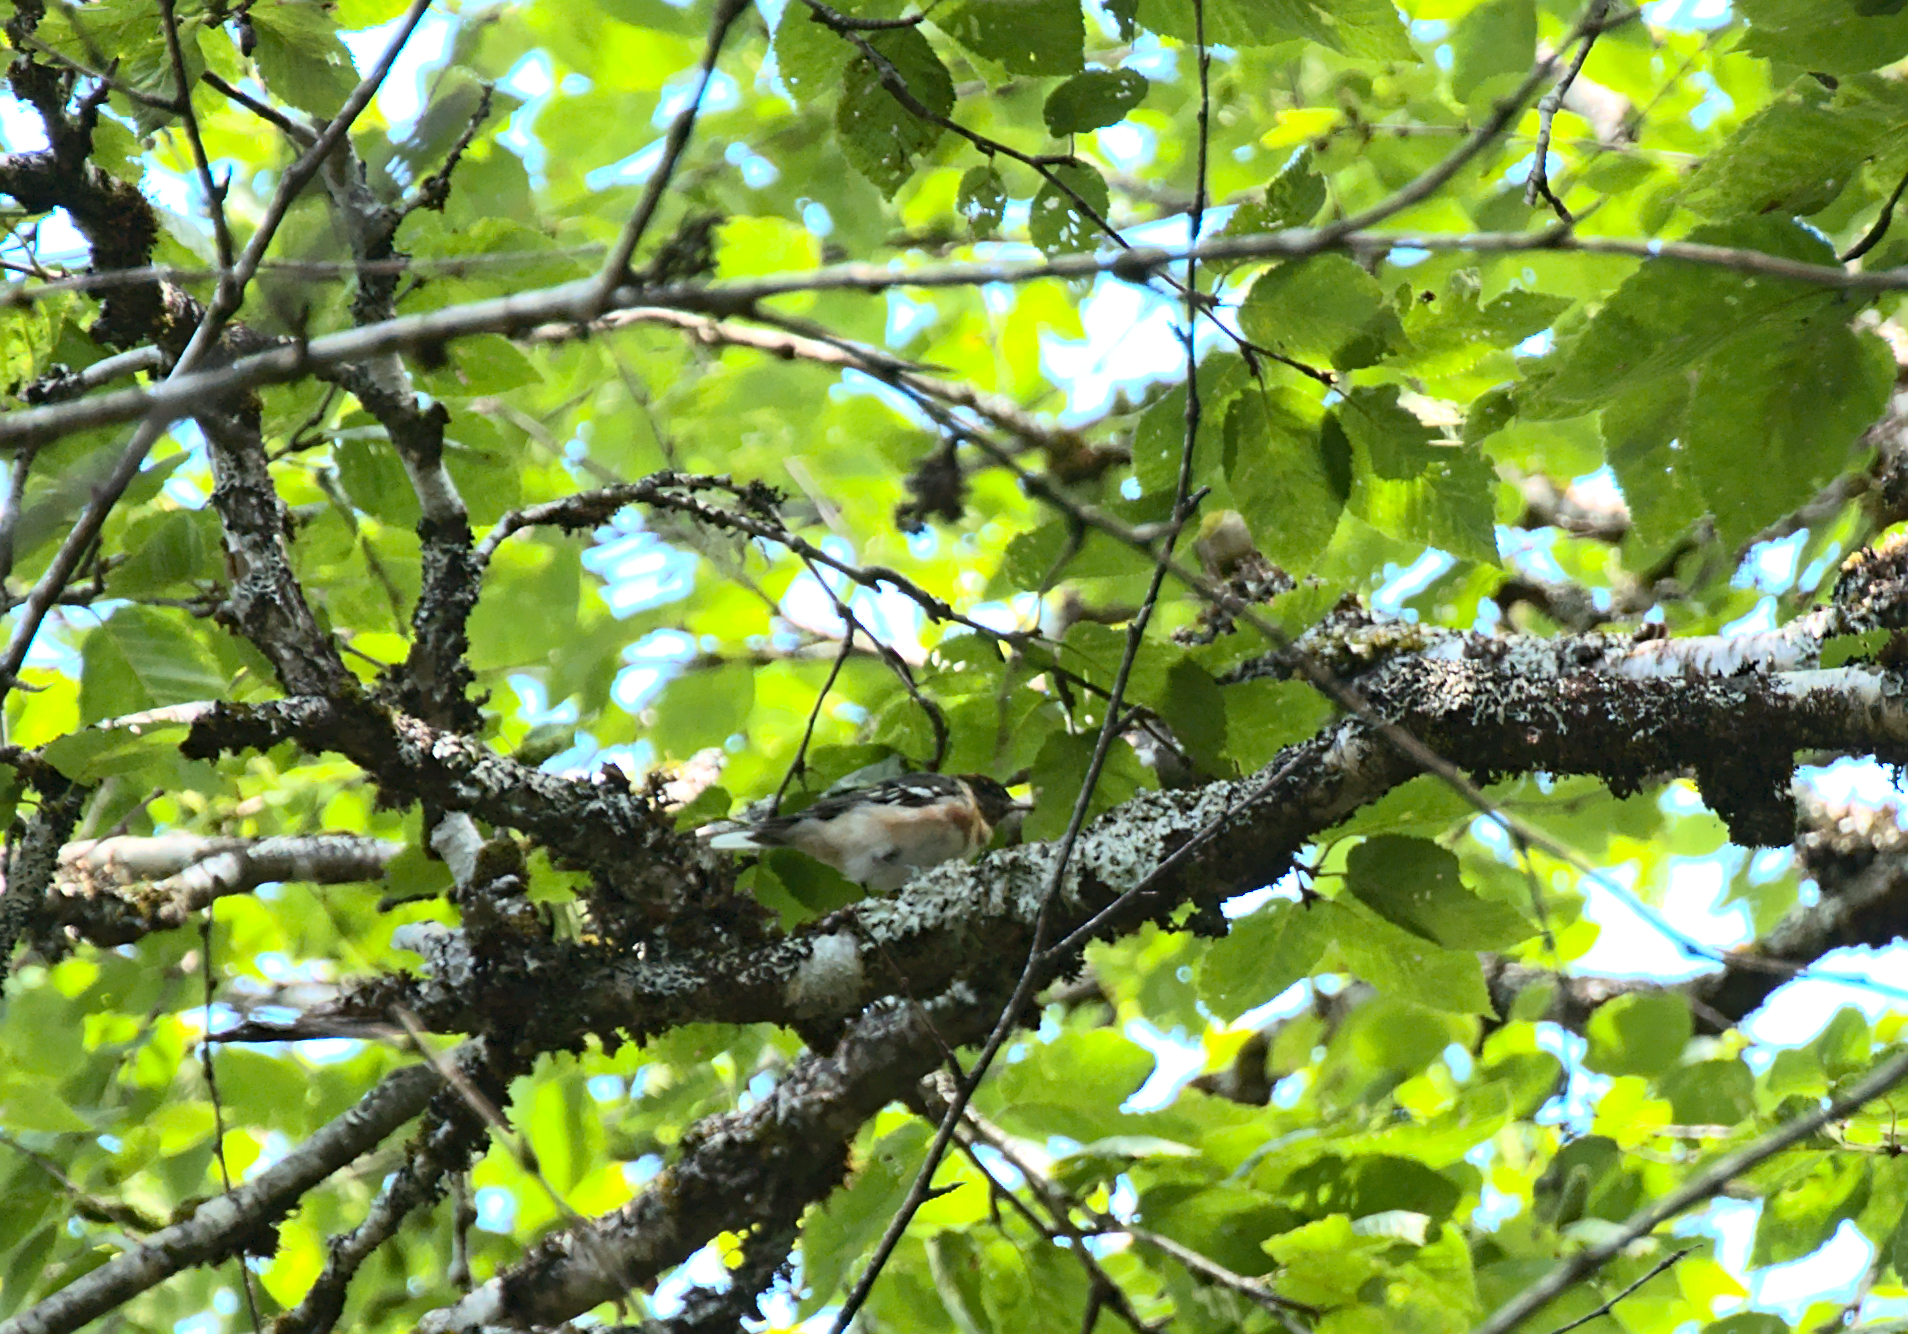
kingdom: Animalia
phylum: Chordata
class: Aves
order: Passeriformes
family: Parulidae
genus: Setophaga
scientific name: Setophaga castanea
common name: Bay-breasted warbler
